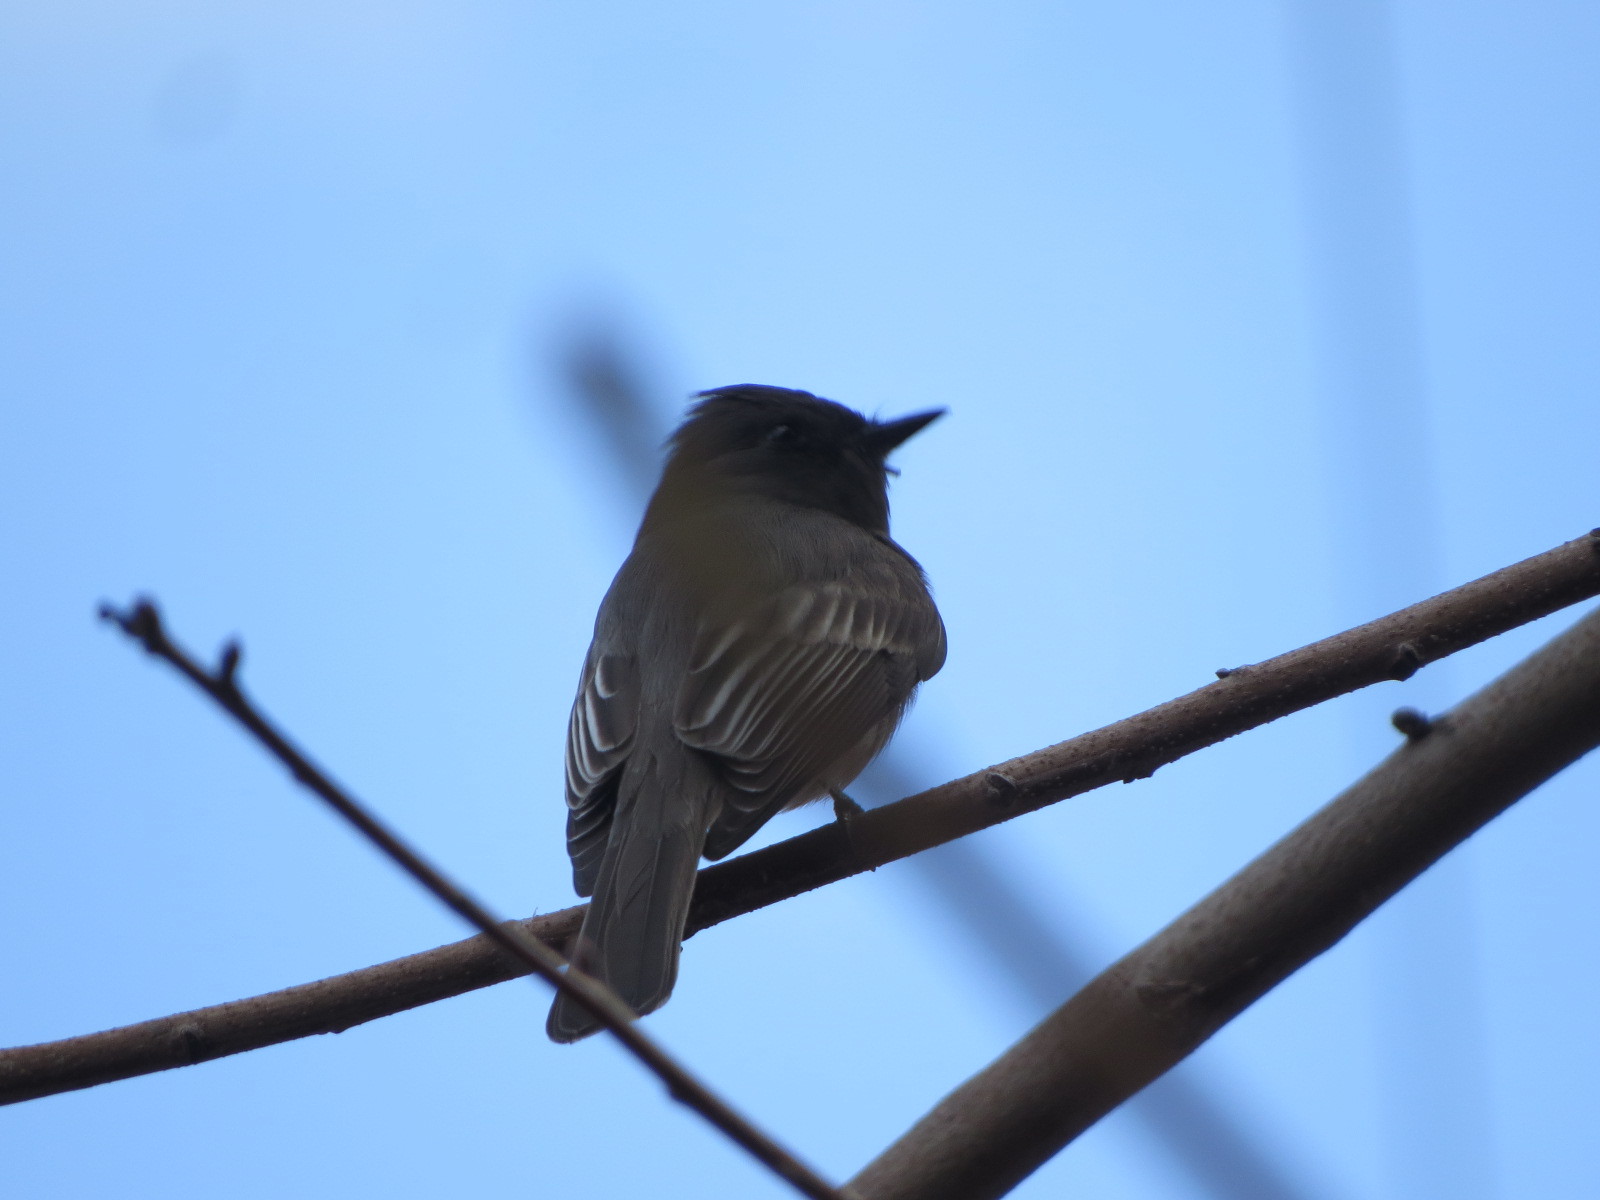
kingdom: Animalia
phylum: Chordata
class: Aves
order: Passeriformes
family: Tyrannidae
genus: Sayornis
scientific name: Sayornis nigricans
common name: Black phoebe
